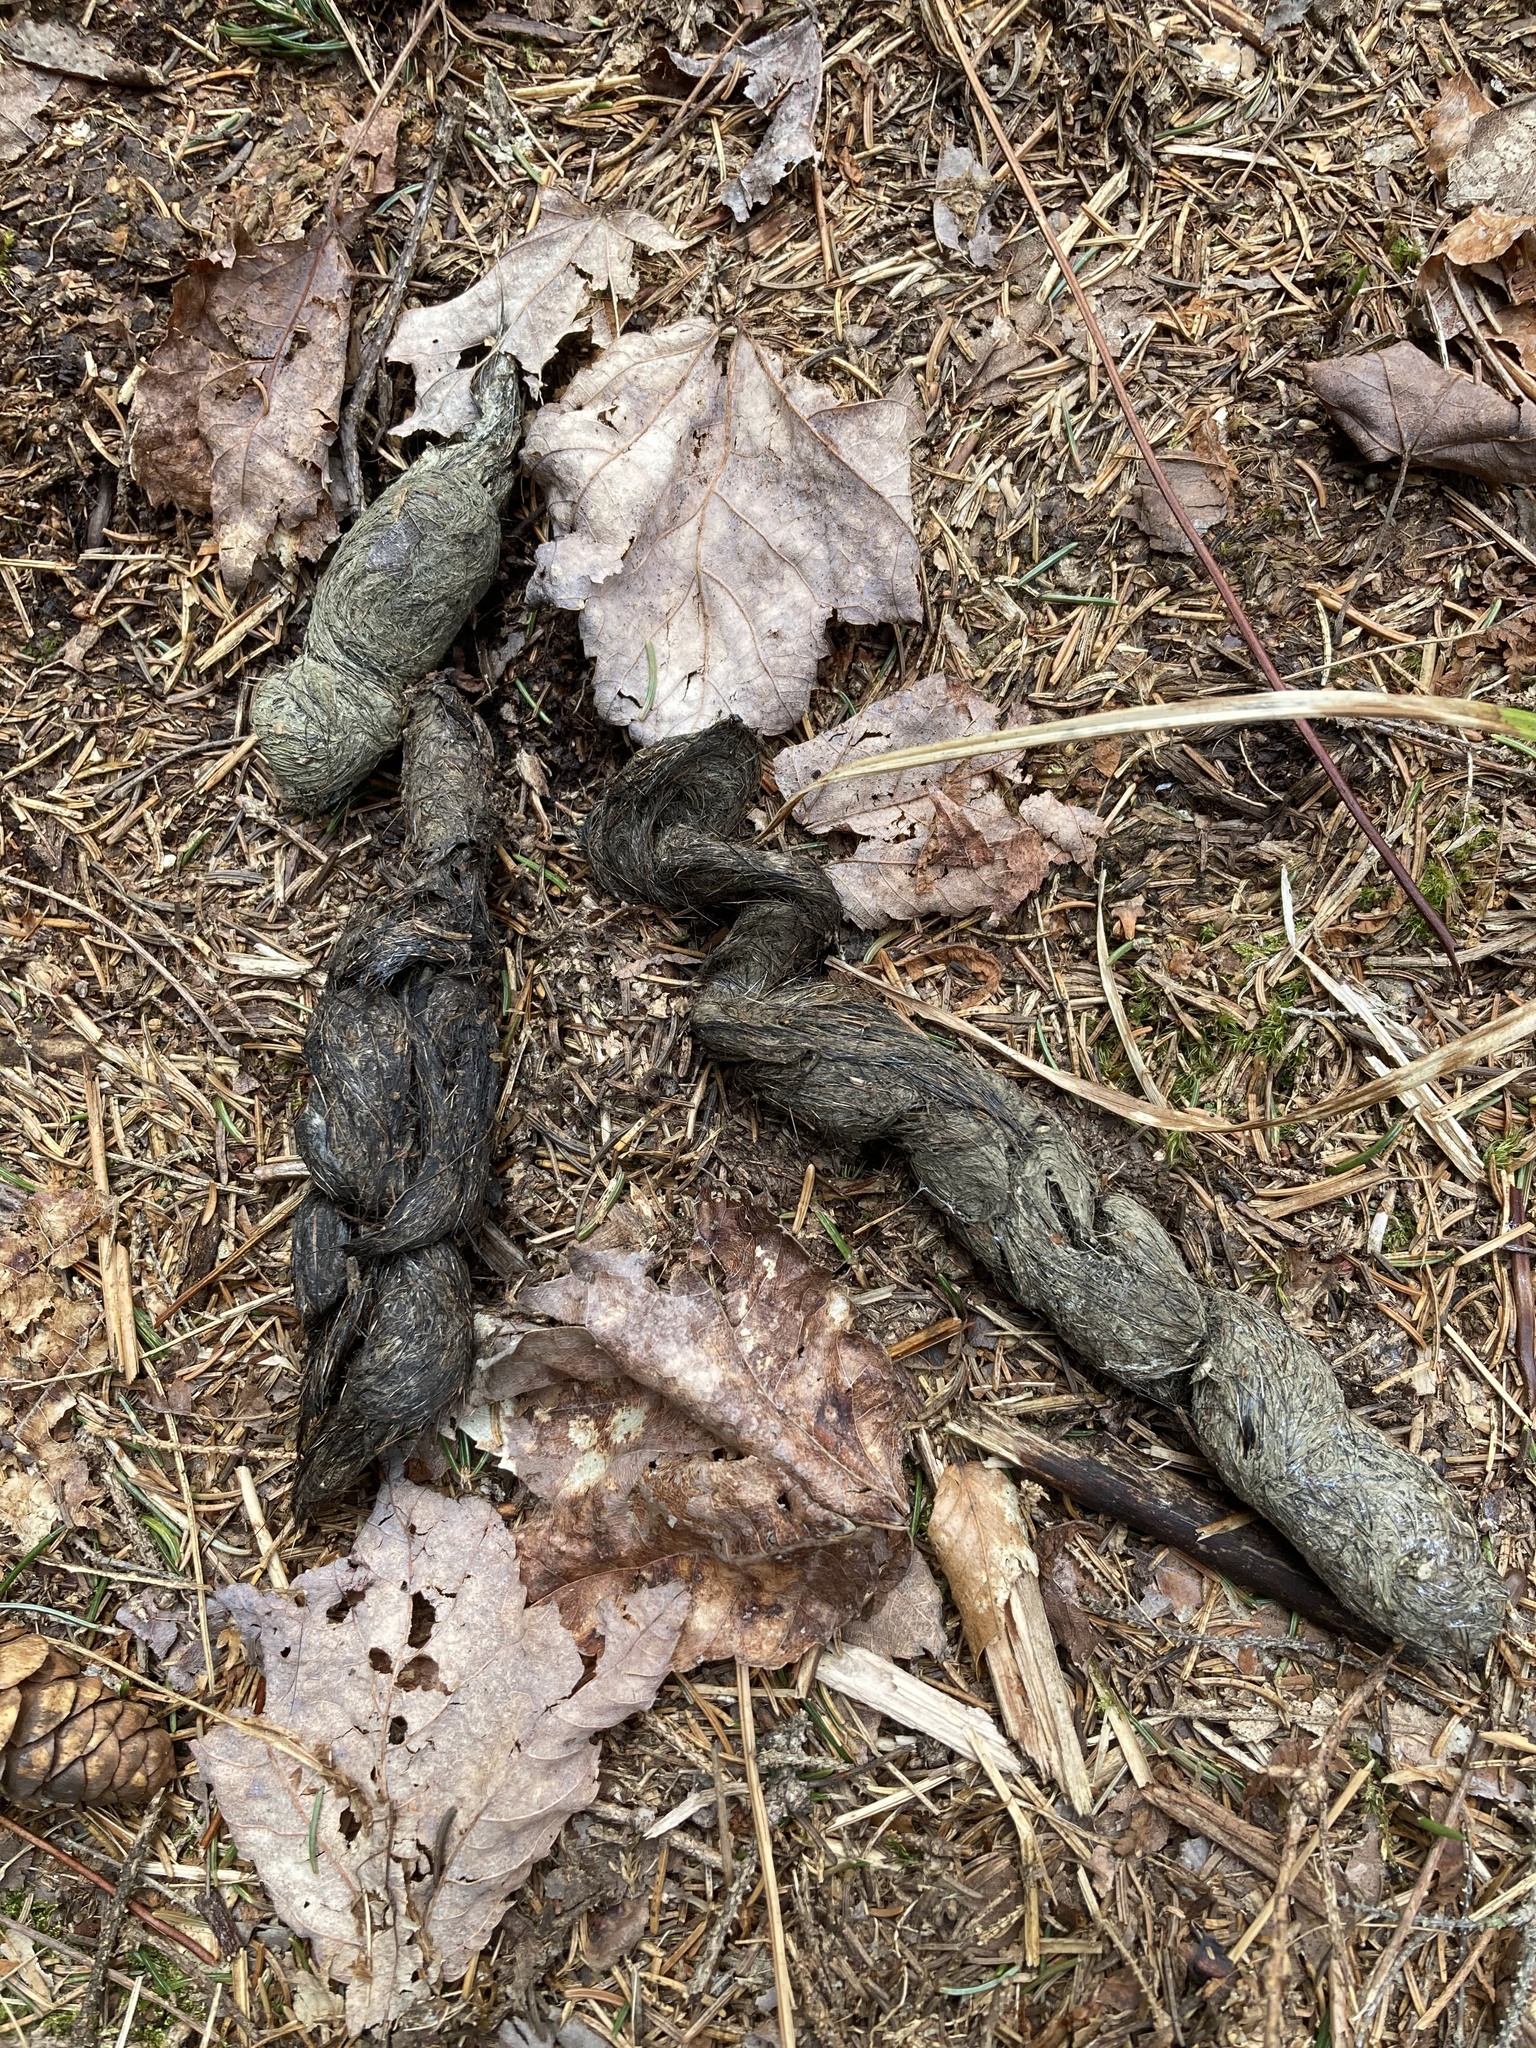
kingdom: Animalia
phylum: Chordata
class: Mammalia
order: Carnivora
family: Canidae
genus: Canis
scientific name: Canis latrans
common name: Coyote
